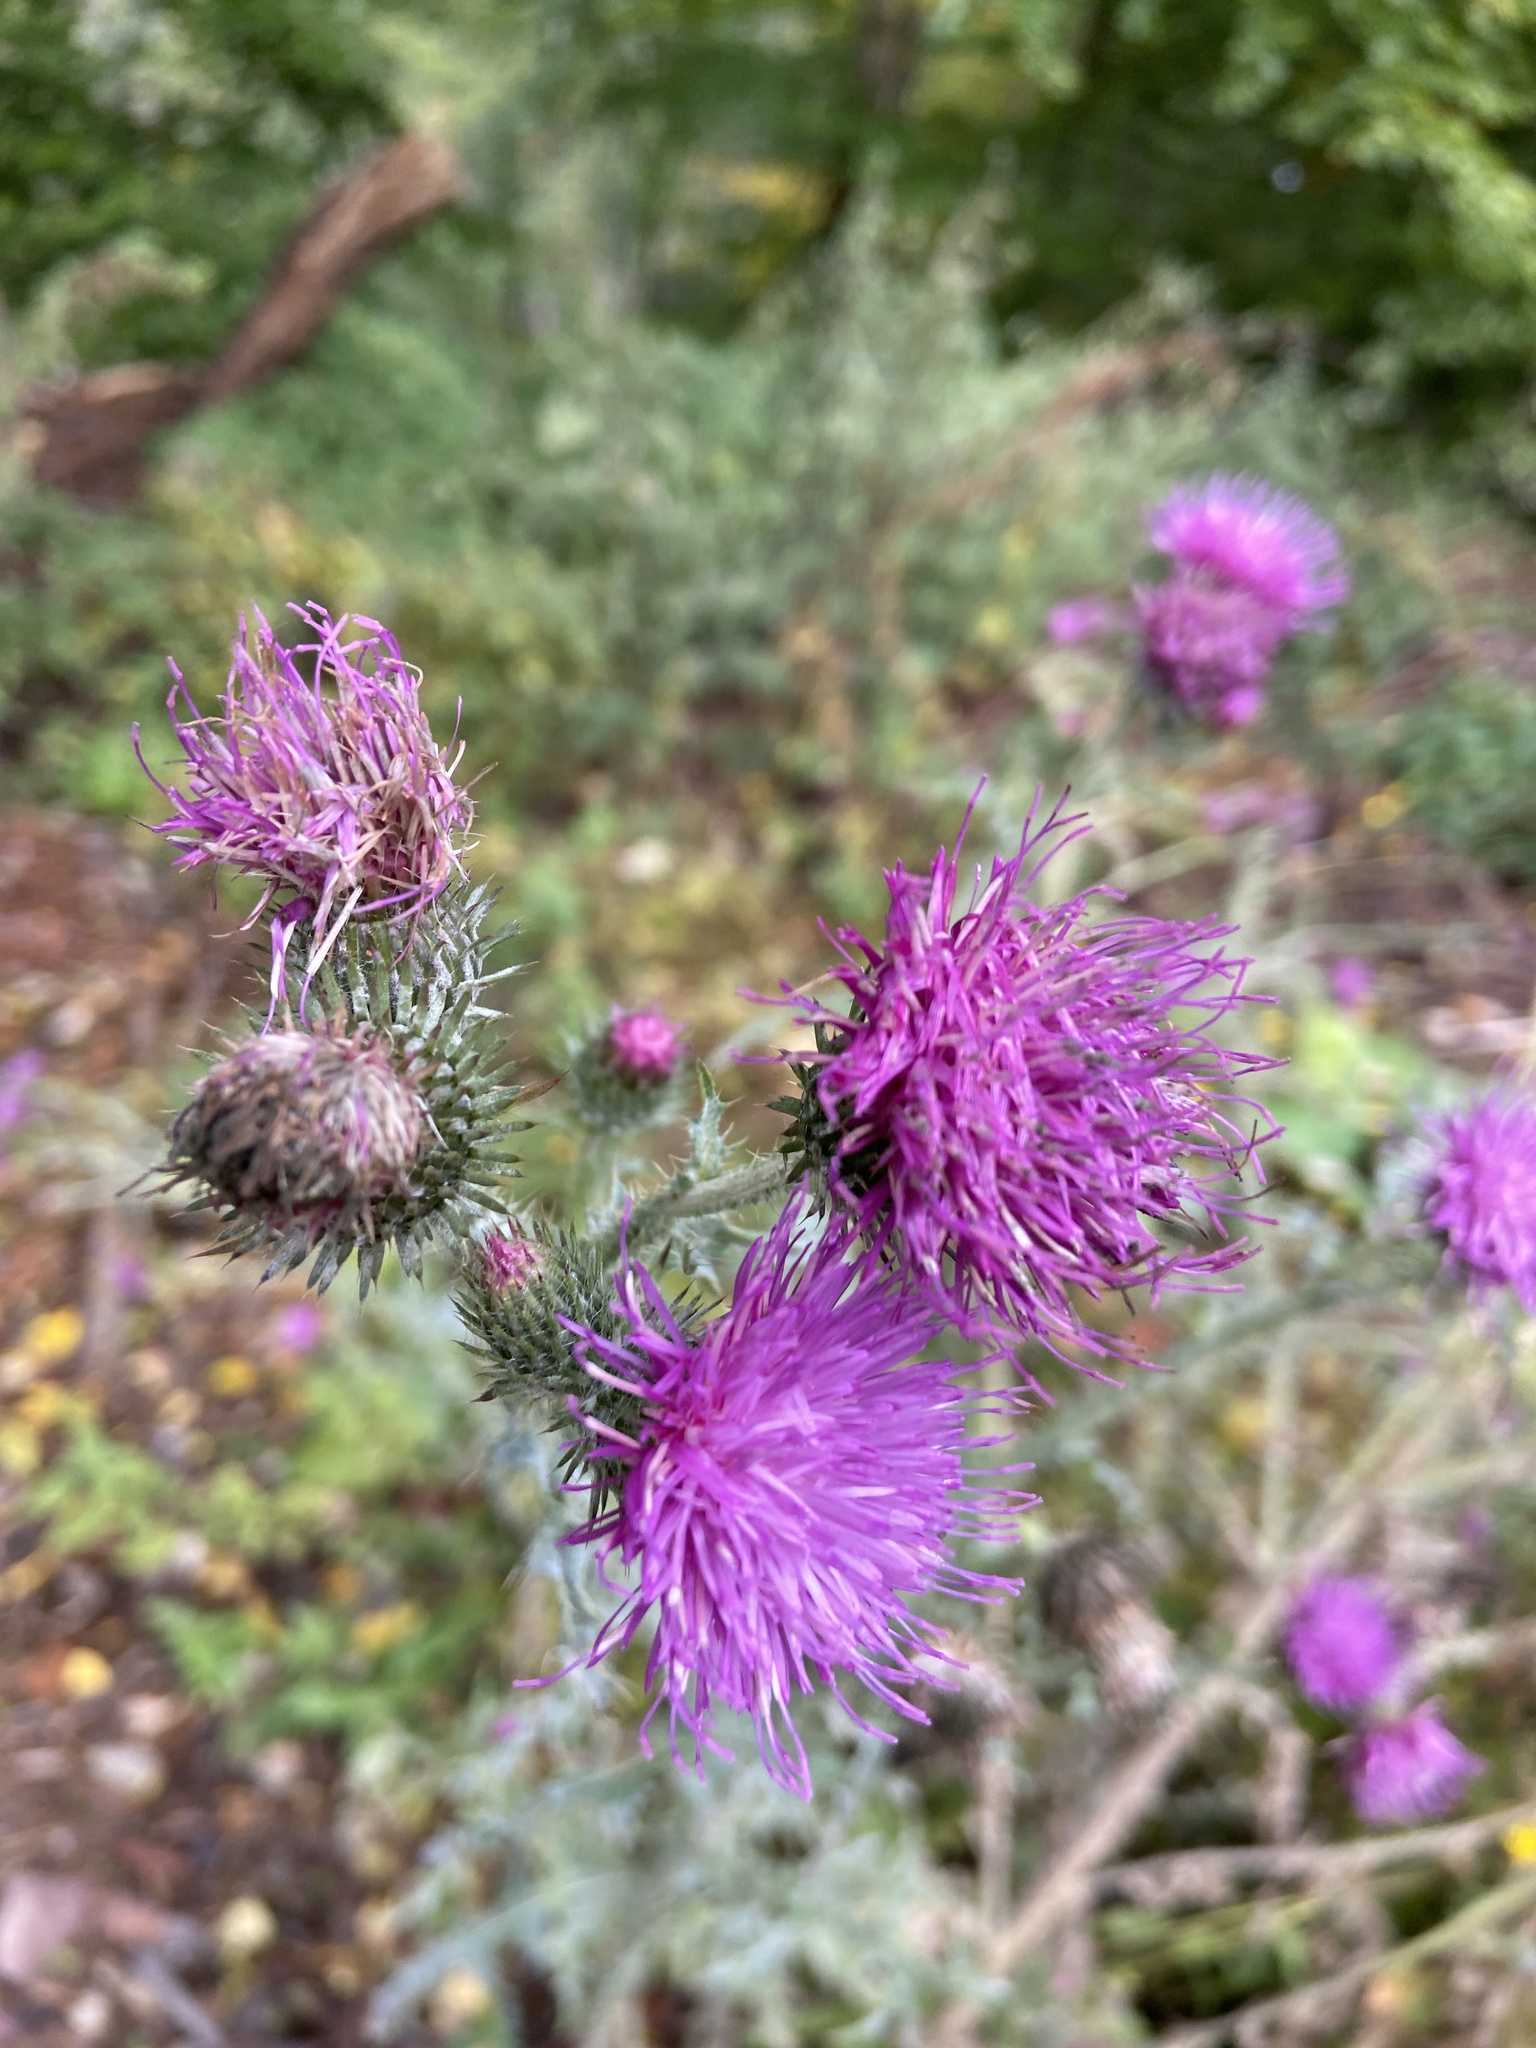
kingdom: Plantae
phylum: Tracheophyta
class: Magnoliopsida
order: Asterales
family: Asteraceae
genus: Carduus
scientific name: Carduus crispus
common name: Welted thistle
